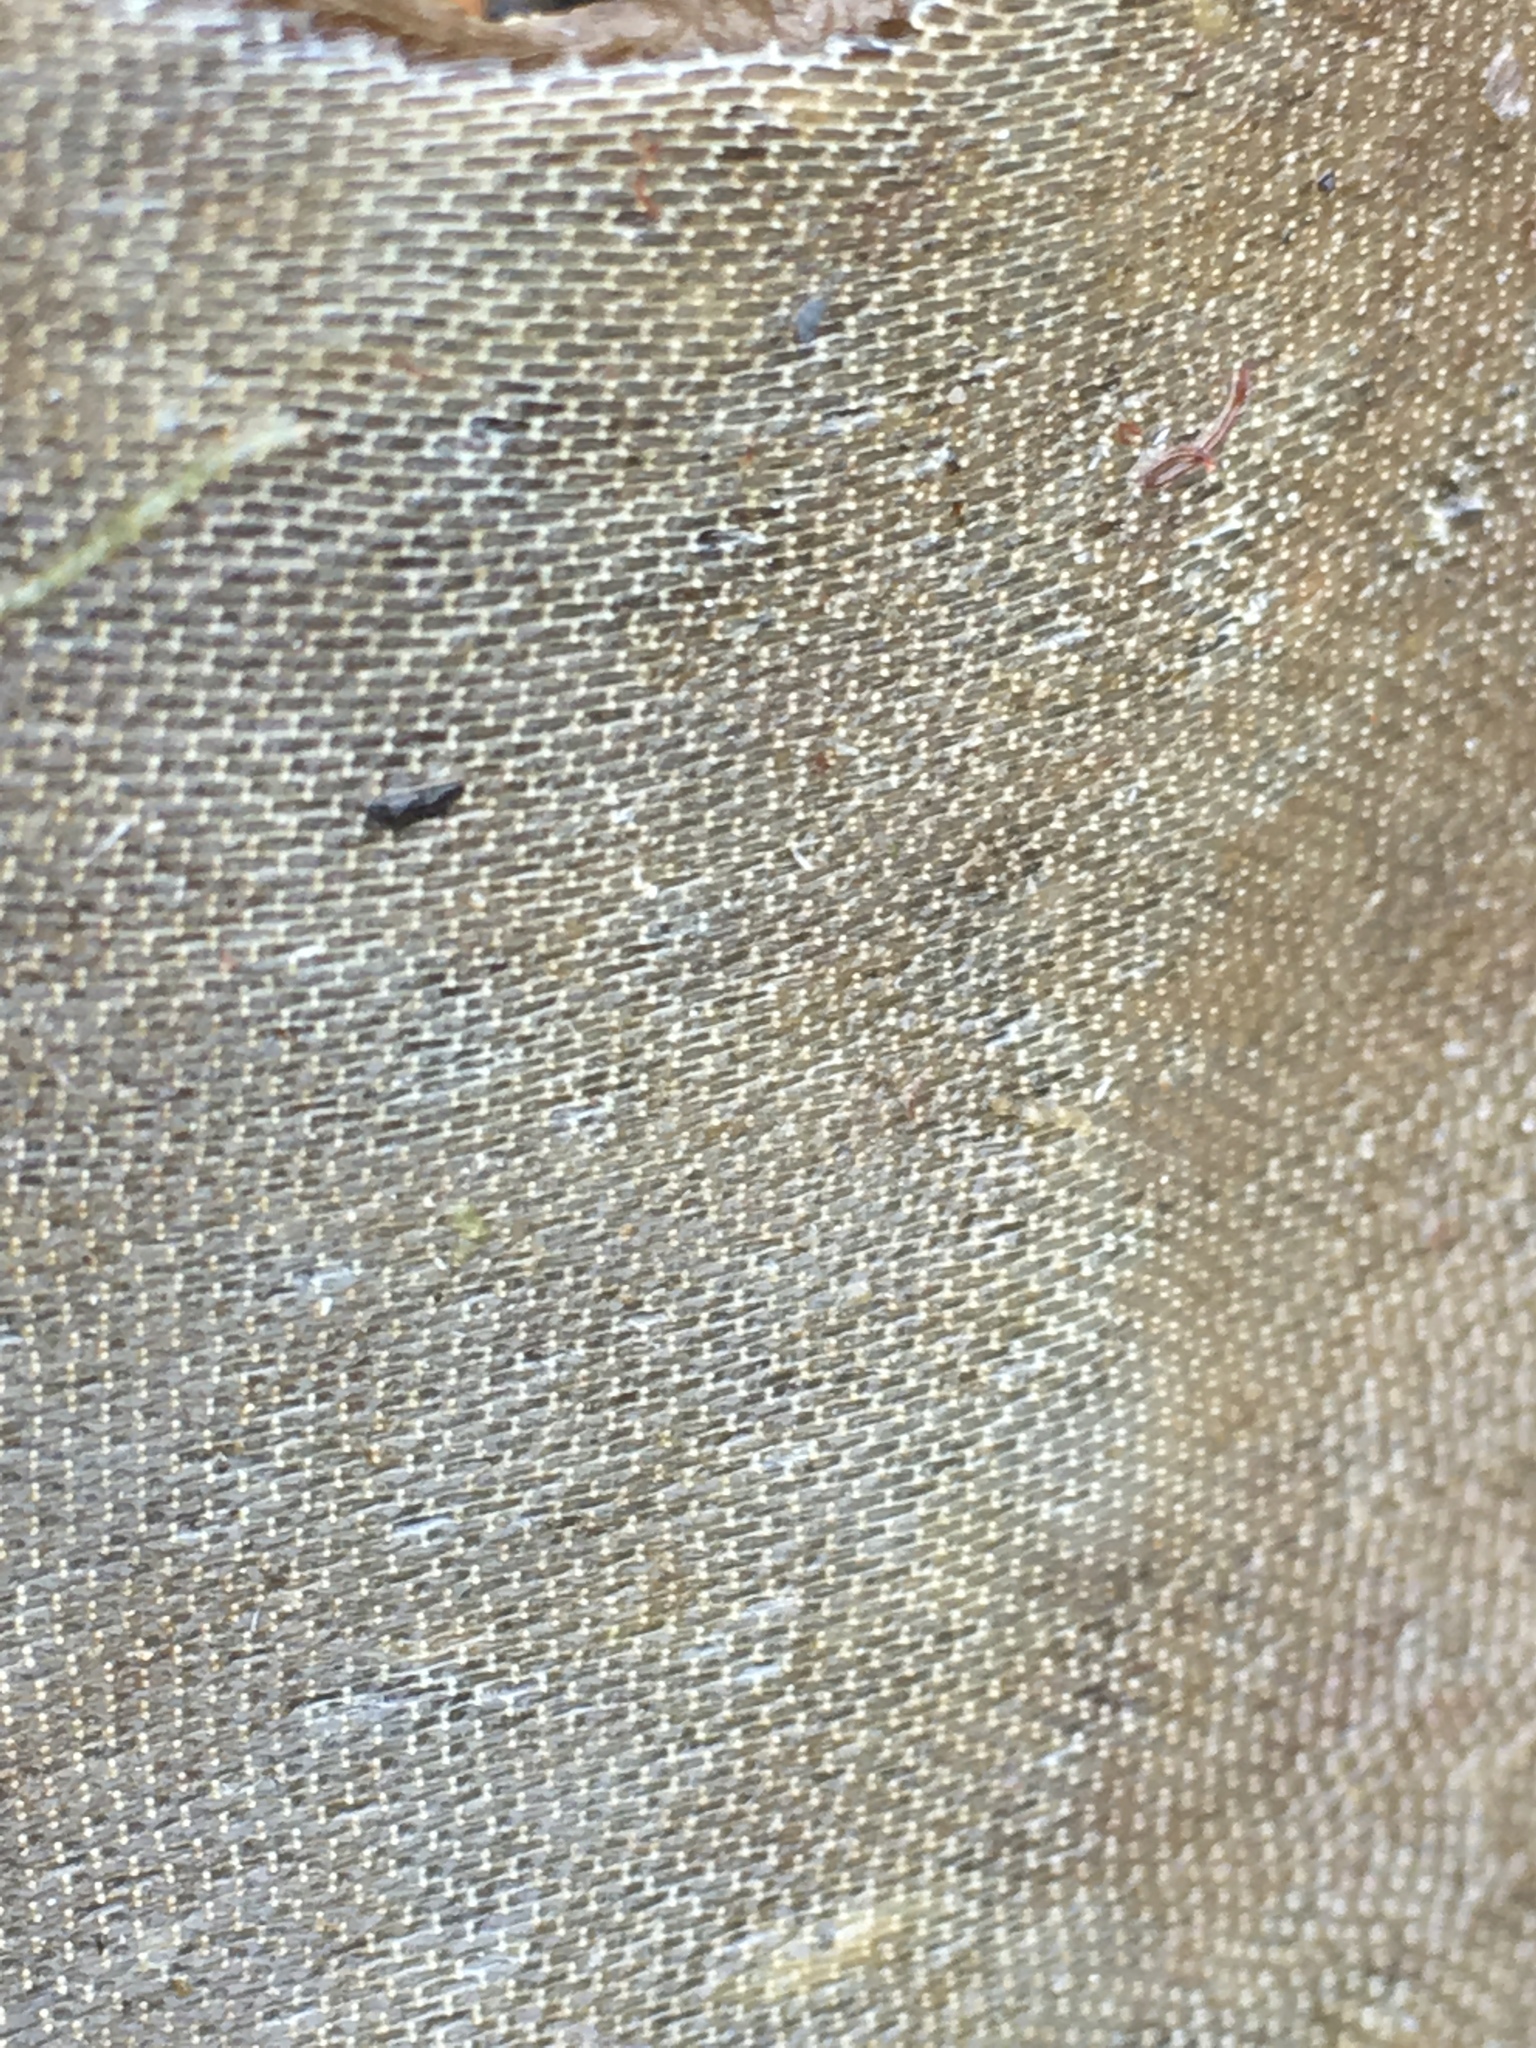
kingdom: Animalia
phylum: Bryozoa
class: Gymnolaemata
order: Cheilostomatida
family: Membraniporidae
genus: Membranipora
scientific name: Membranipora membranacea
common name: Sea mat
